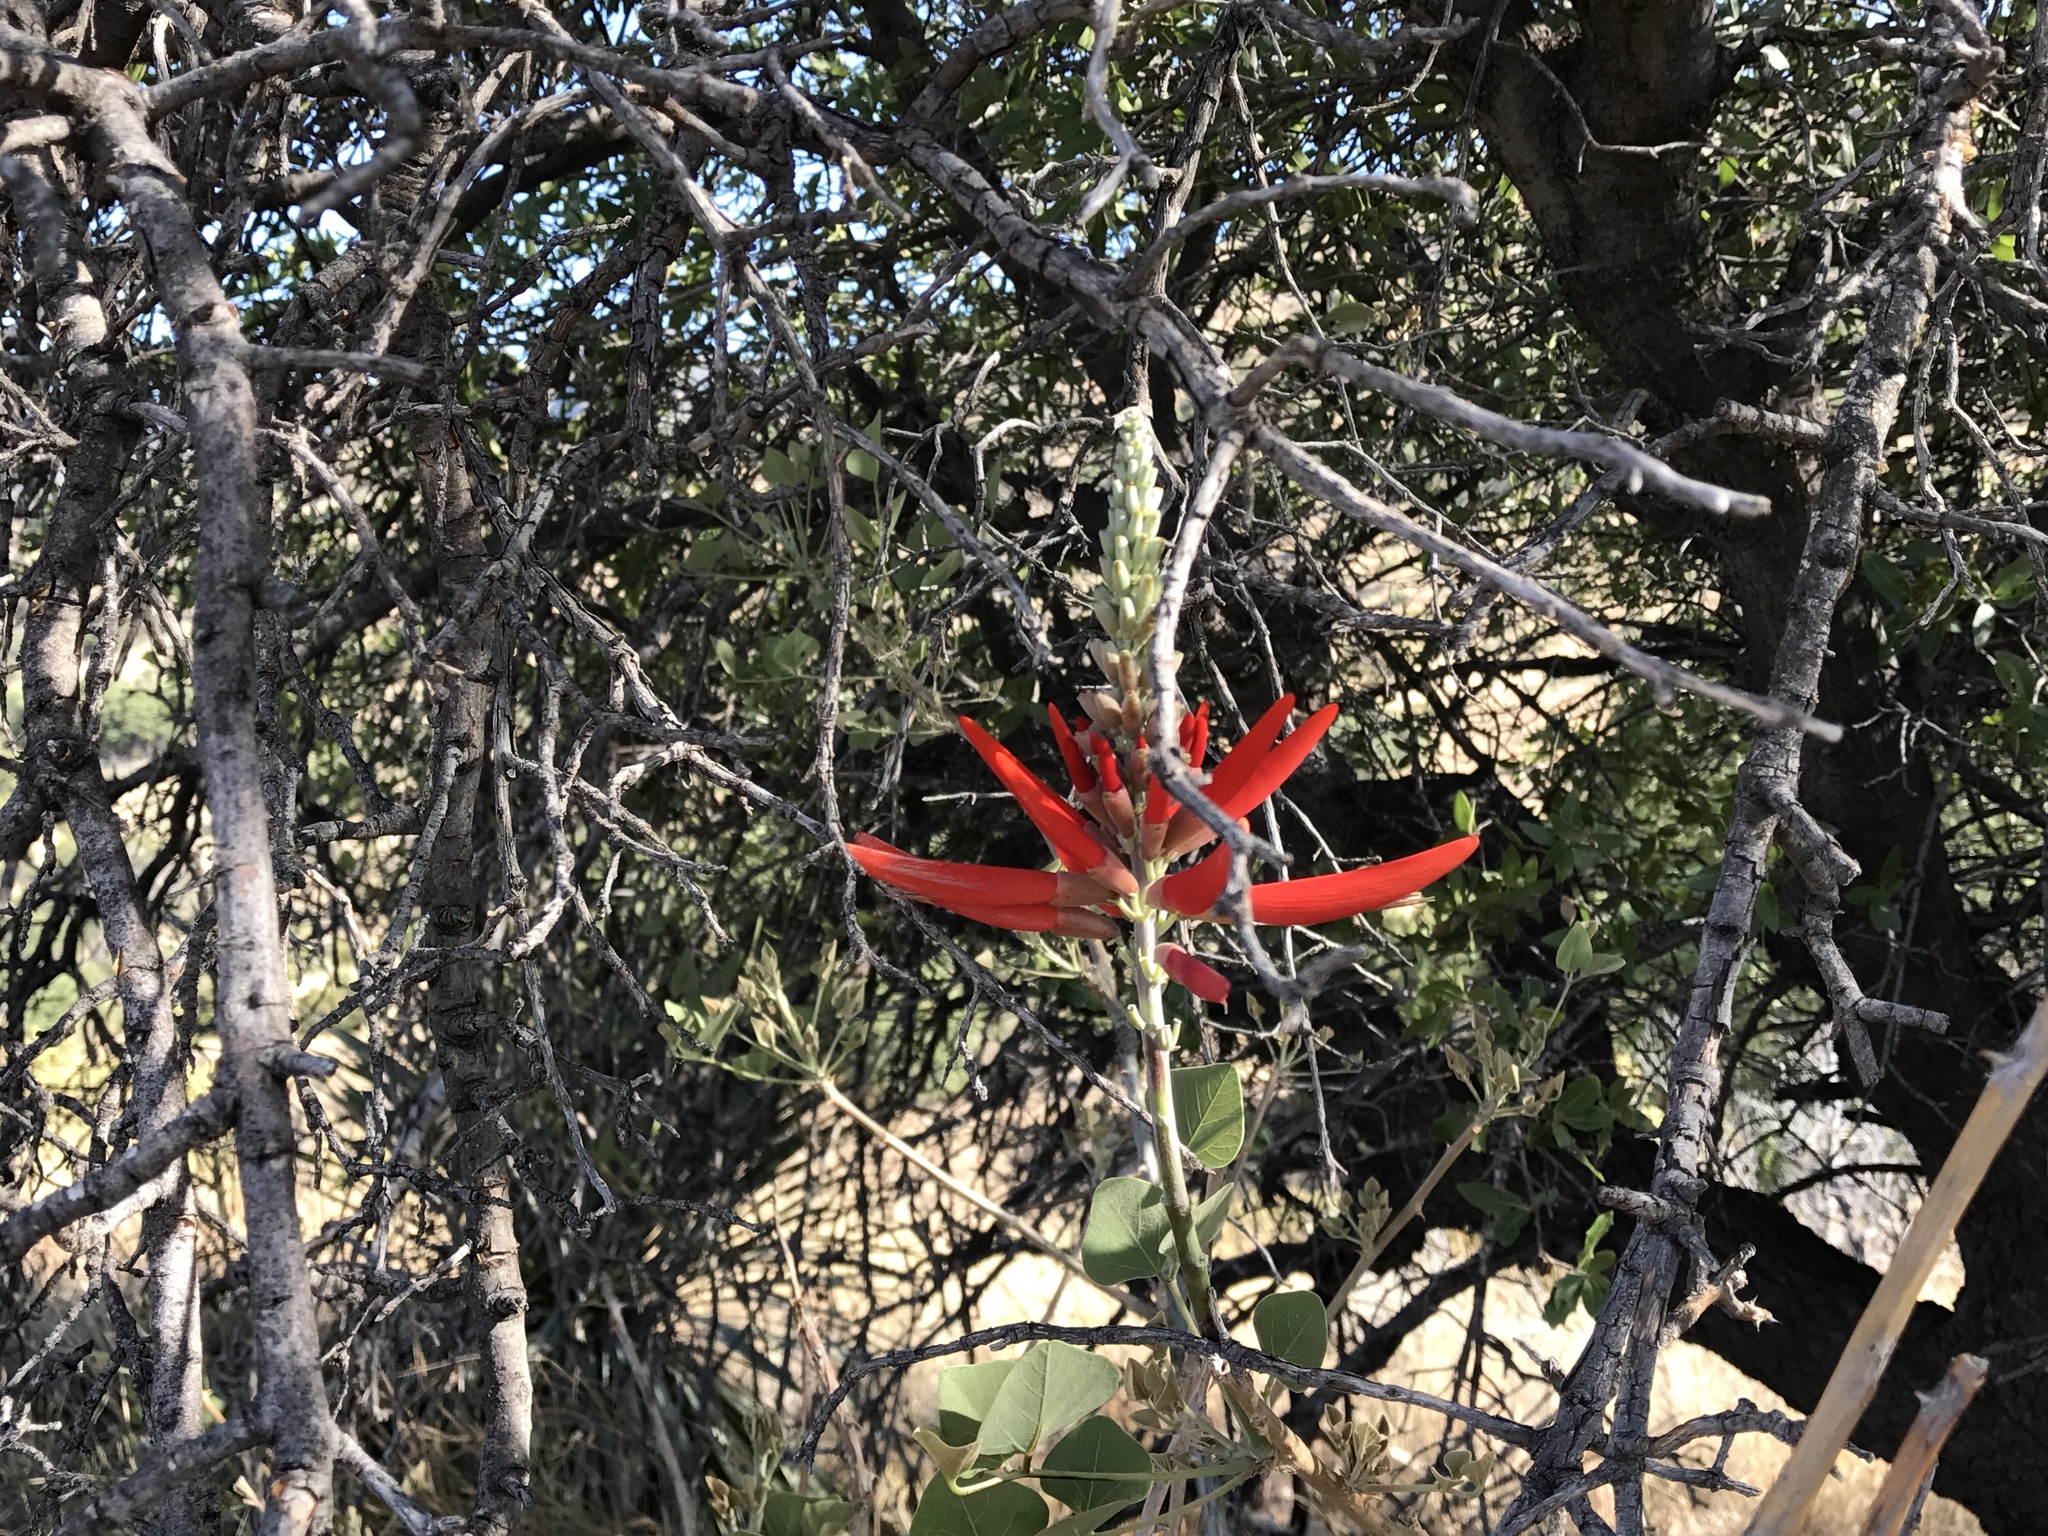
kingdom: Plantae
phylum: Tracheophyta
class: Magnoliopsida
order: Fabales
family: Fabaceae
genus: Erythrina
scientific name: Erythrina flabelliformis
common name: Chilicote
